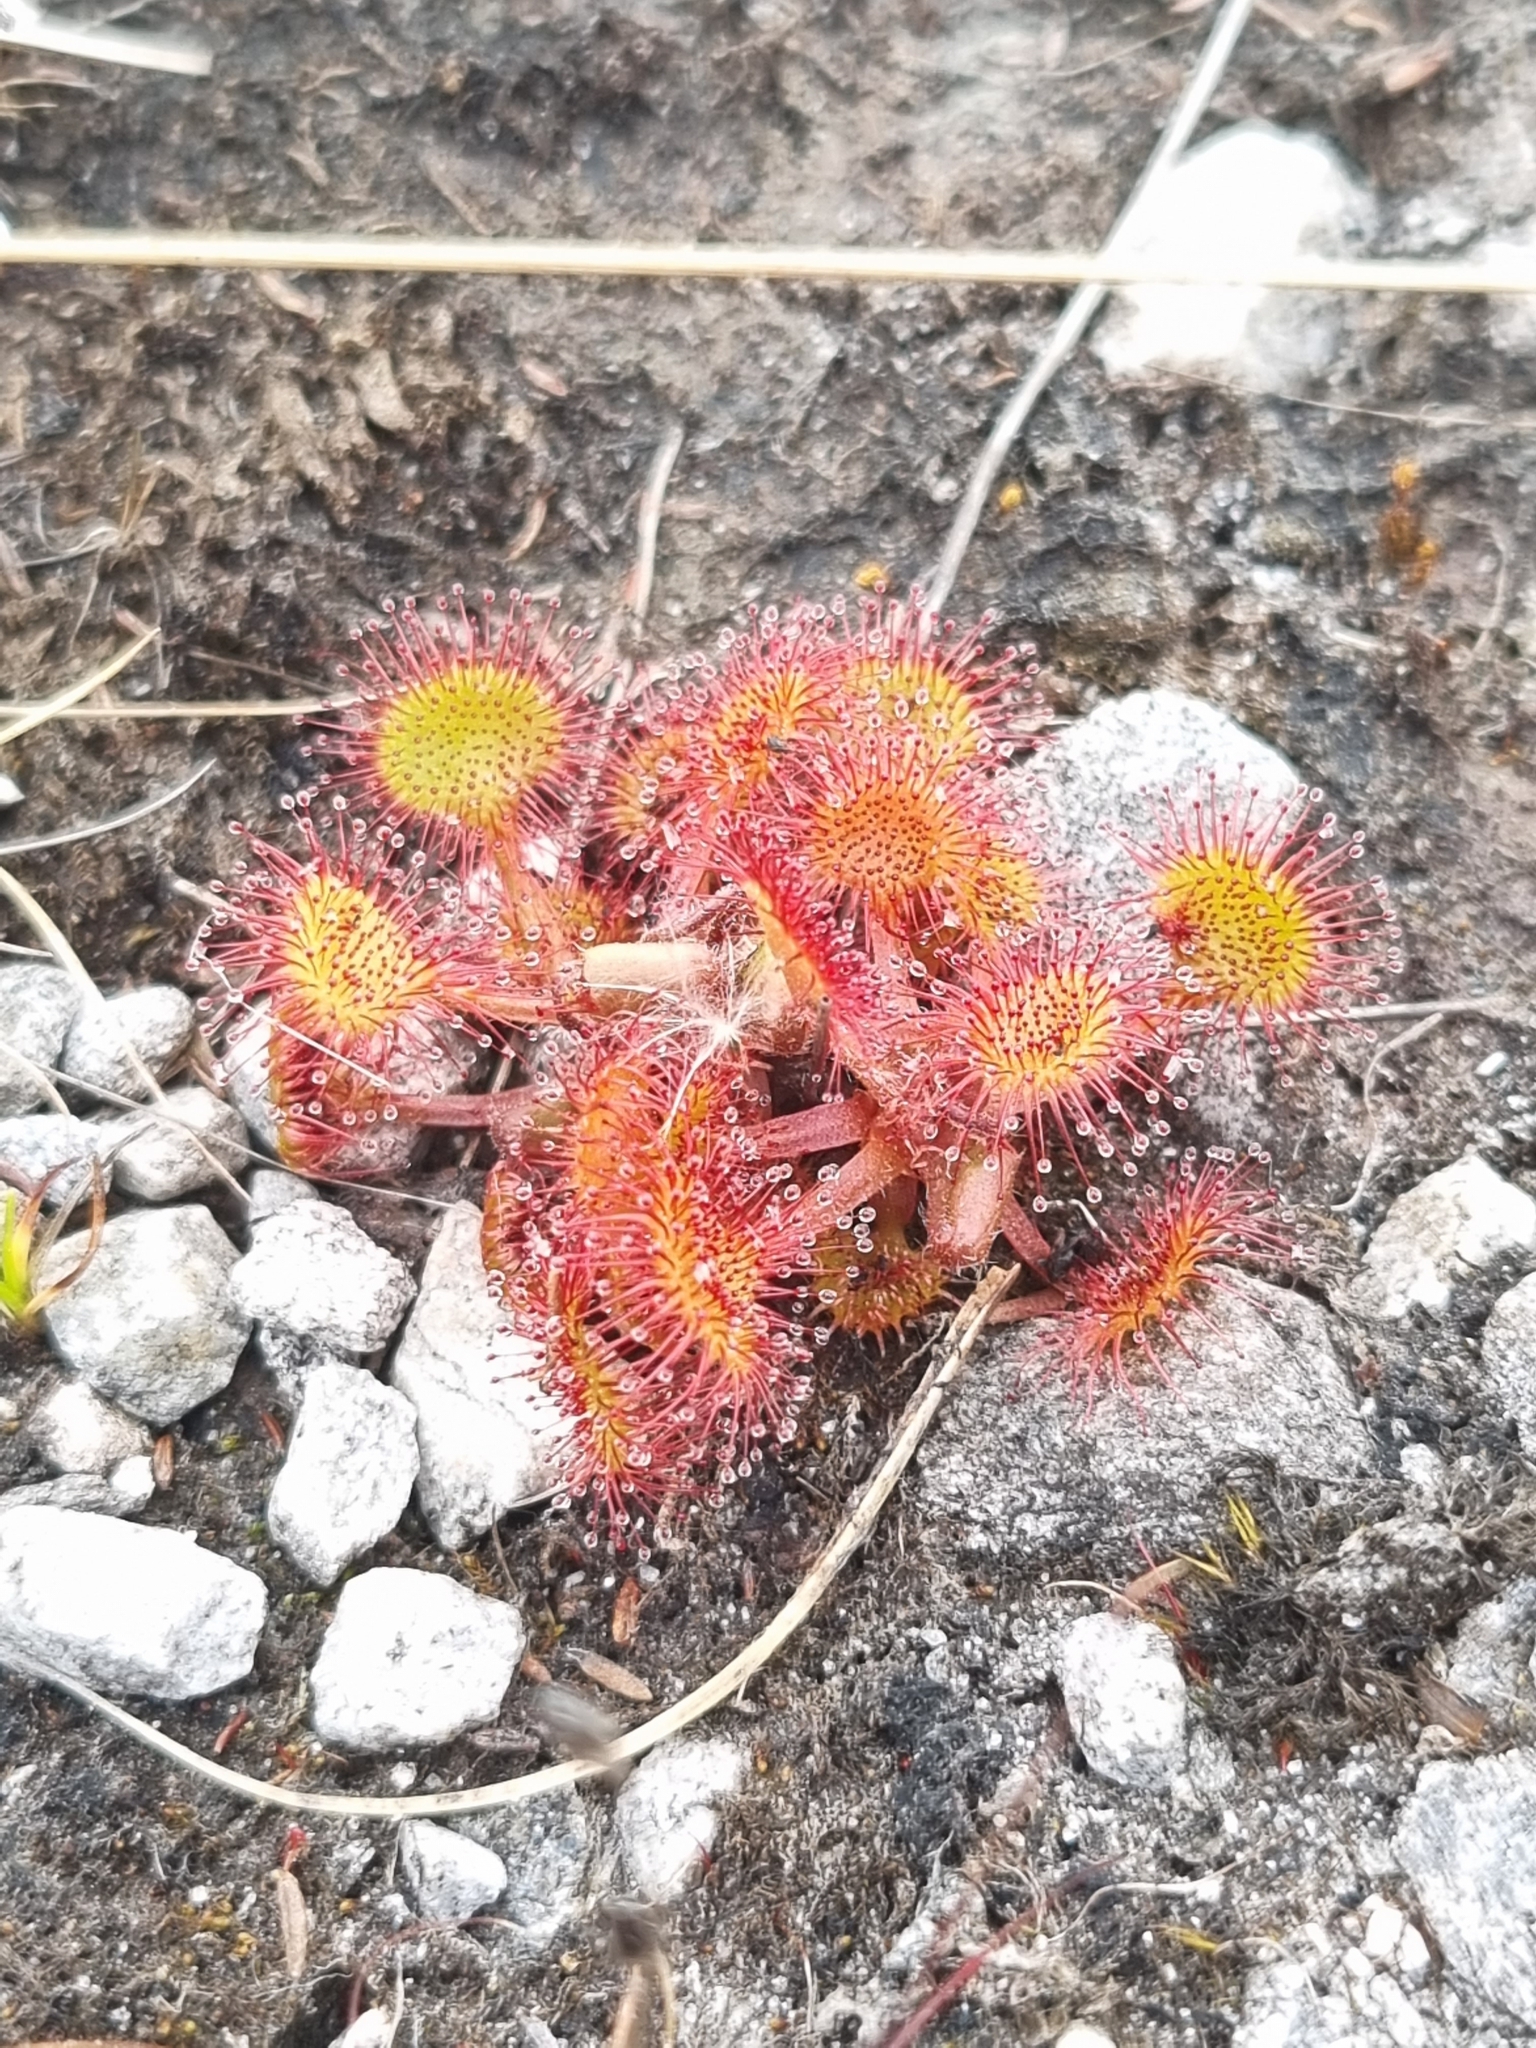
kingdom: Plantae
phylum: Tracheophyta
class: Magnoliopsida
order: Caryophyllales
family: Droseraceae
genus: Drosera
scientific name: Drosera rotundifolia
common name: Round-leaved sundew
